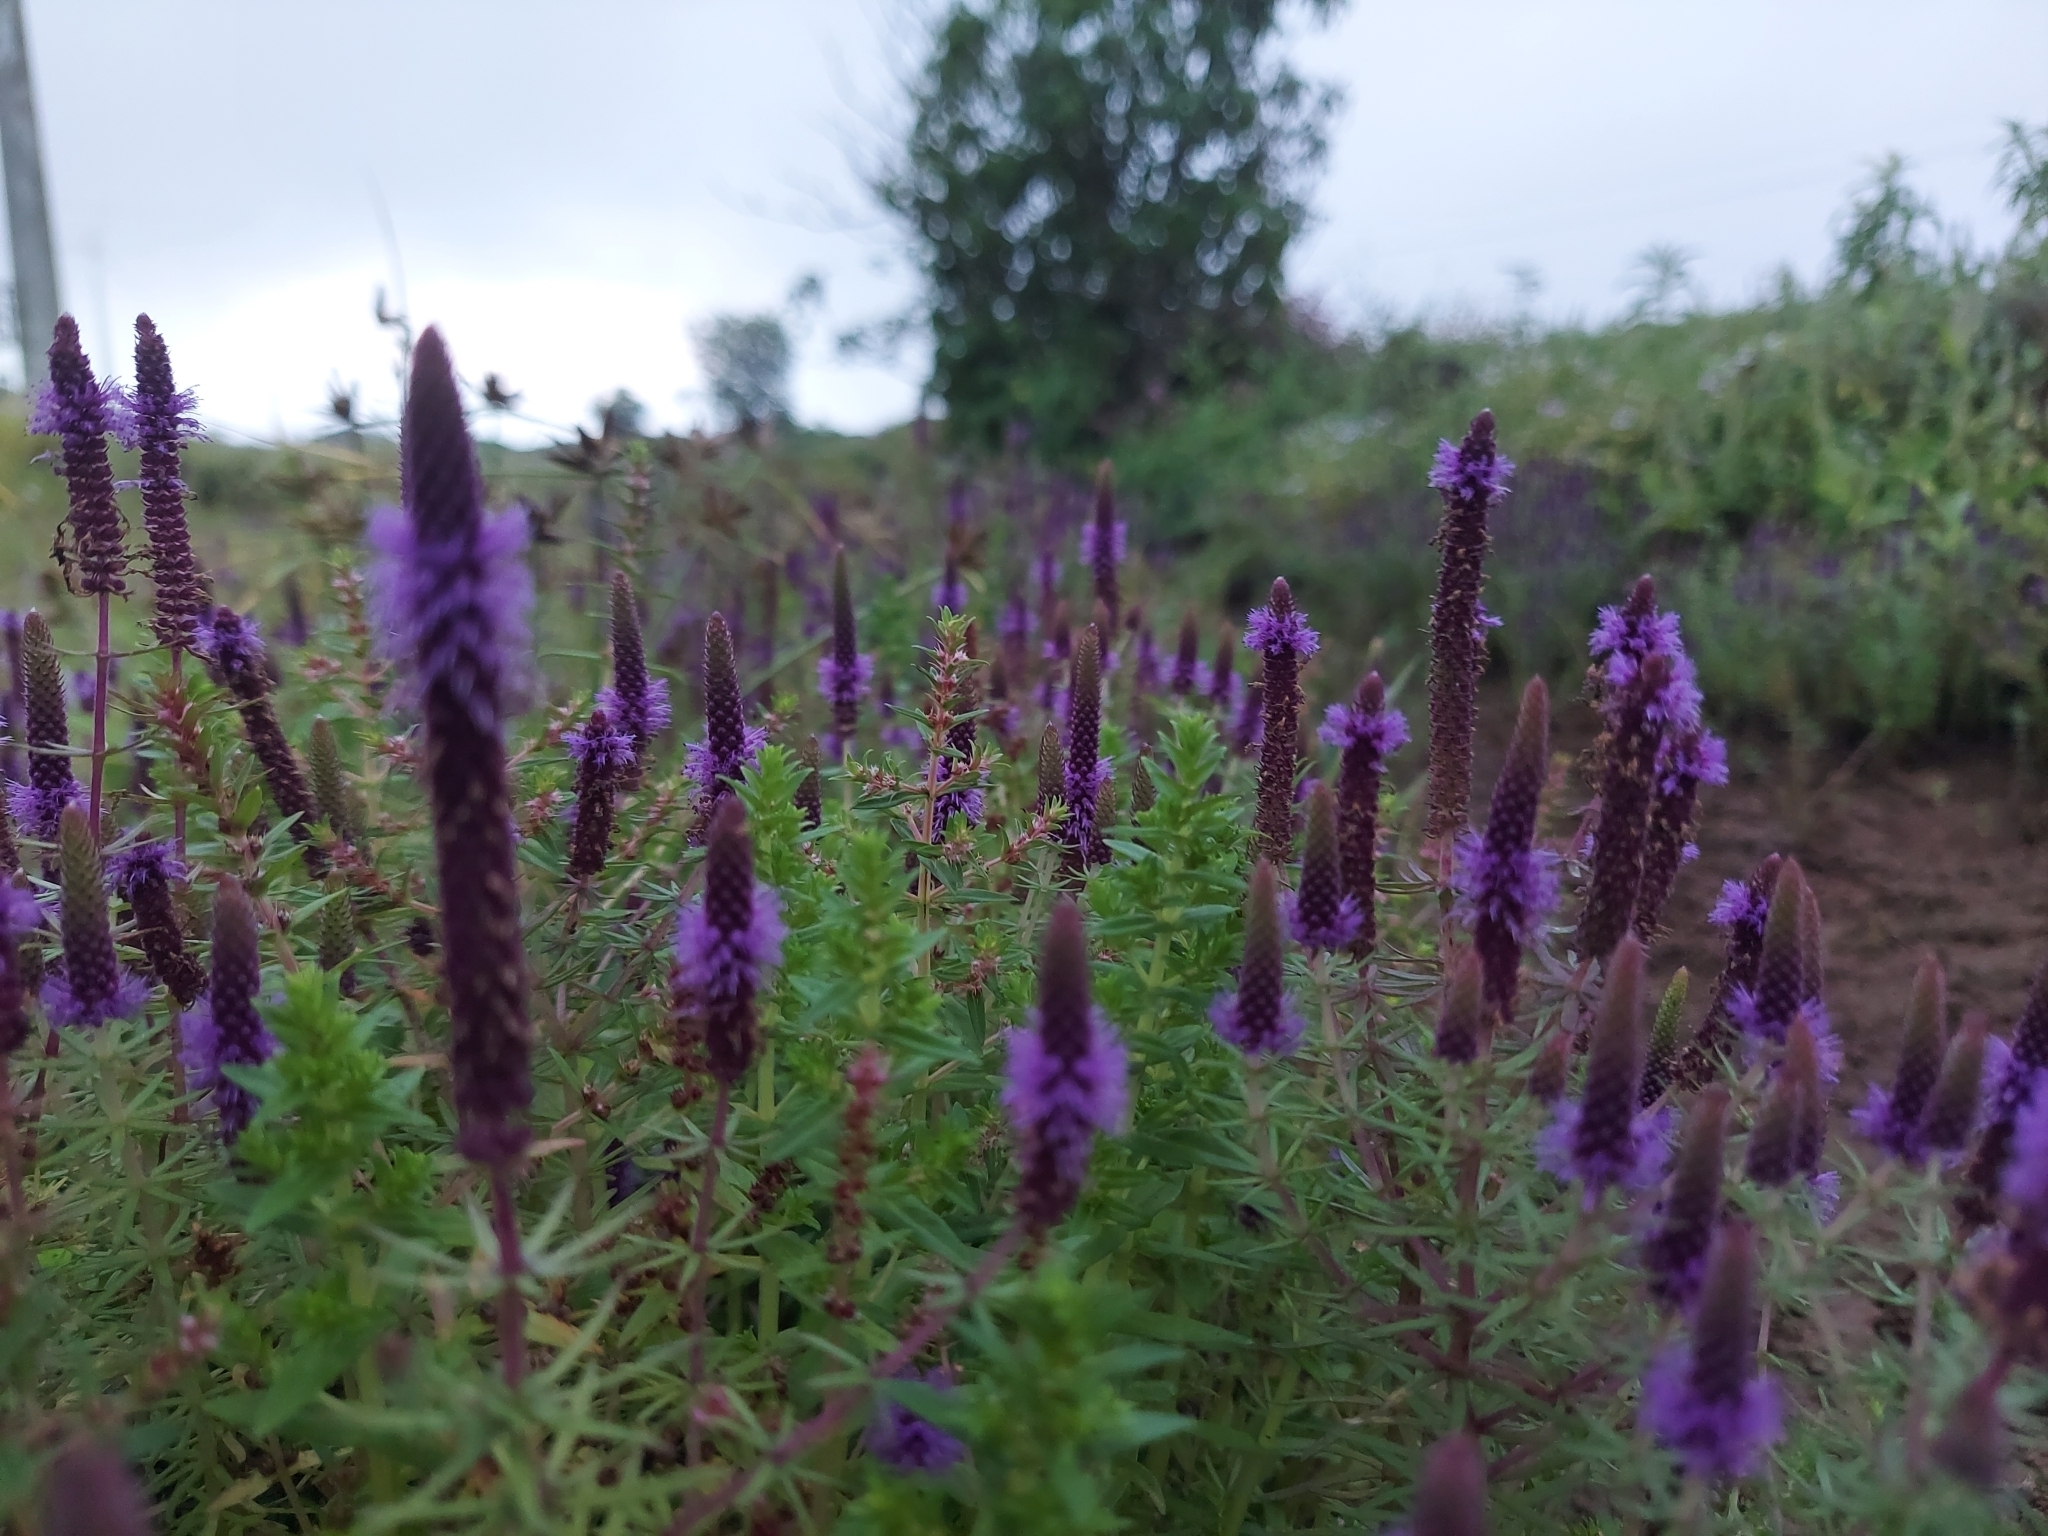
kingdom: Plantae
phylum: Tracheophyta
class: Magnoliopsida
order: Lamiales
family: Lamiaceae
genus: Pogostemon
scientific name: Pogostemon deccanensis
